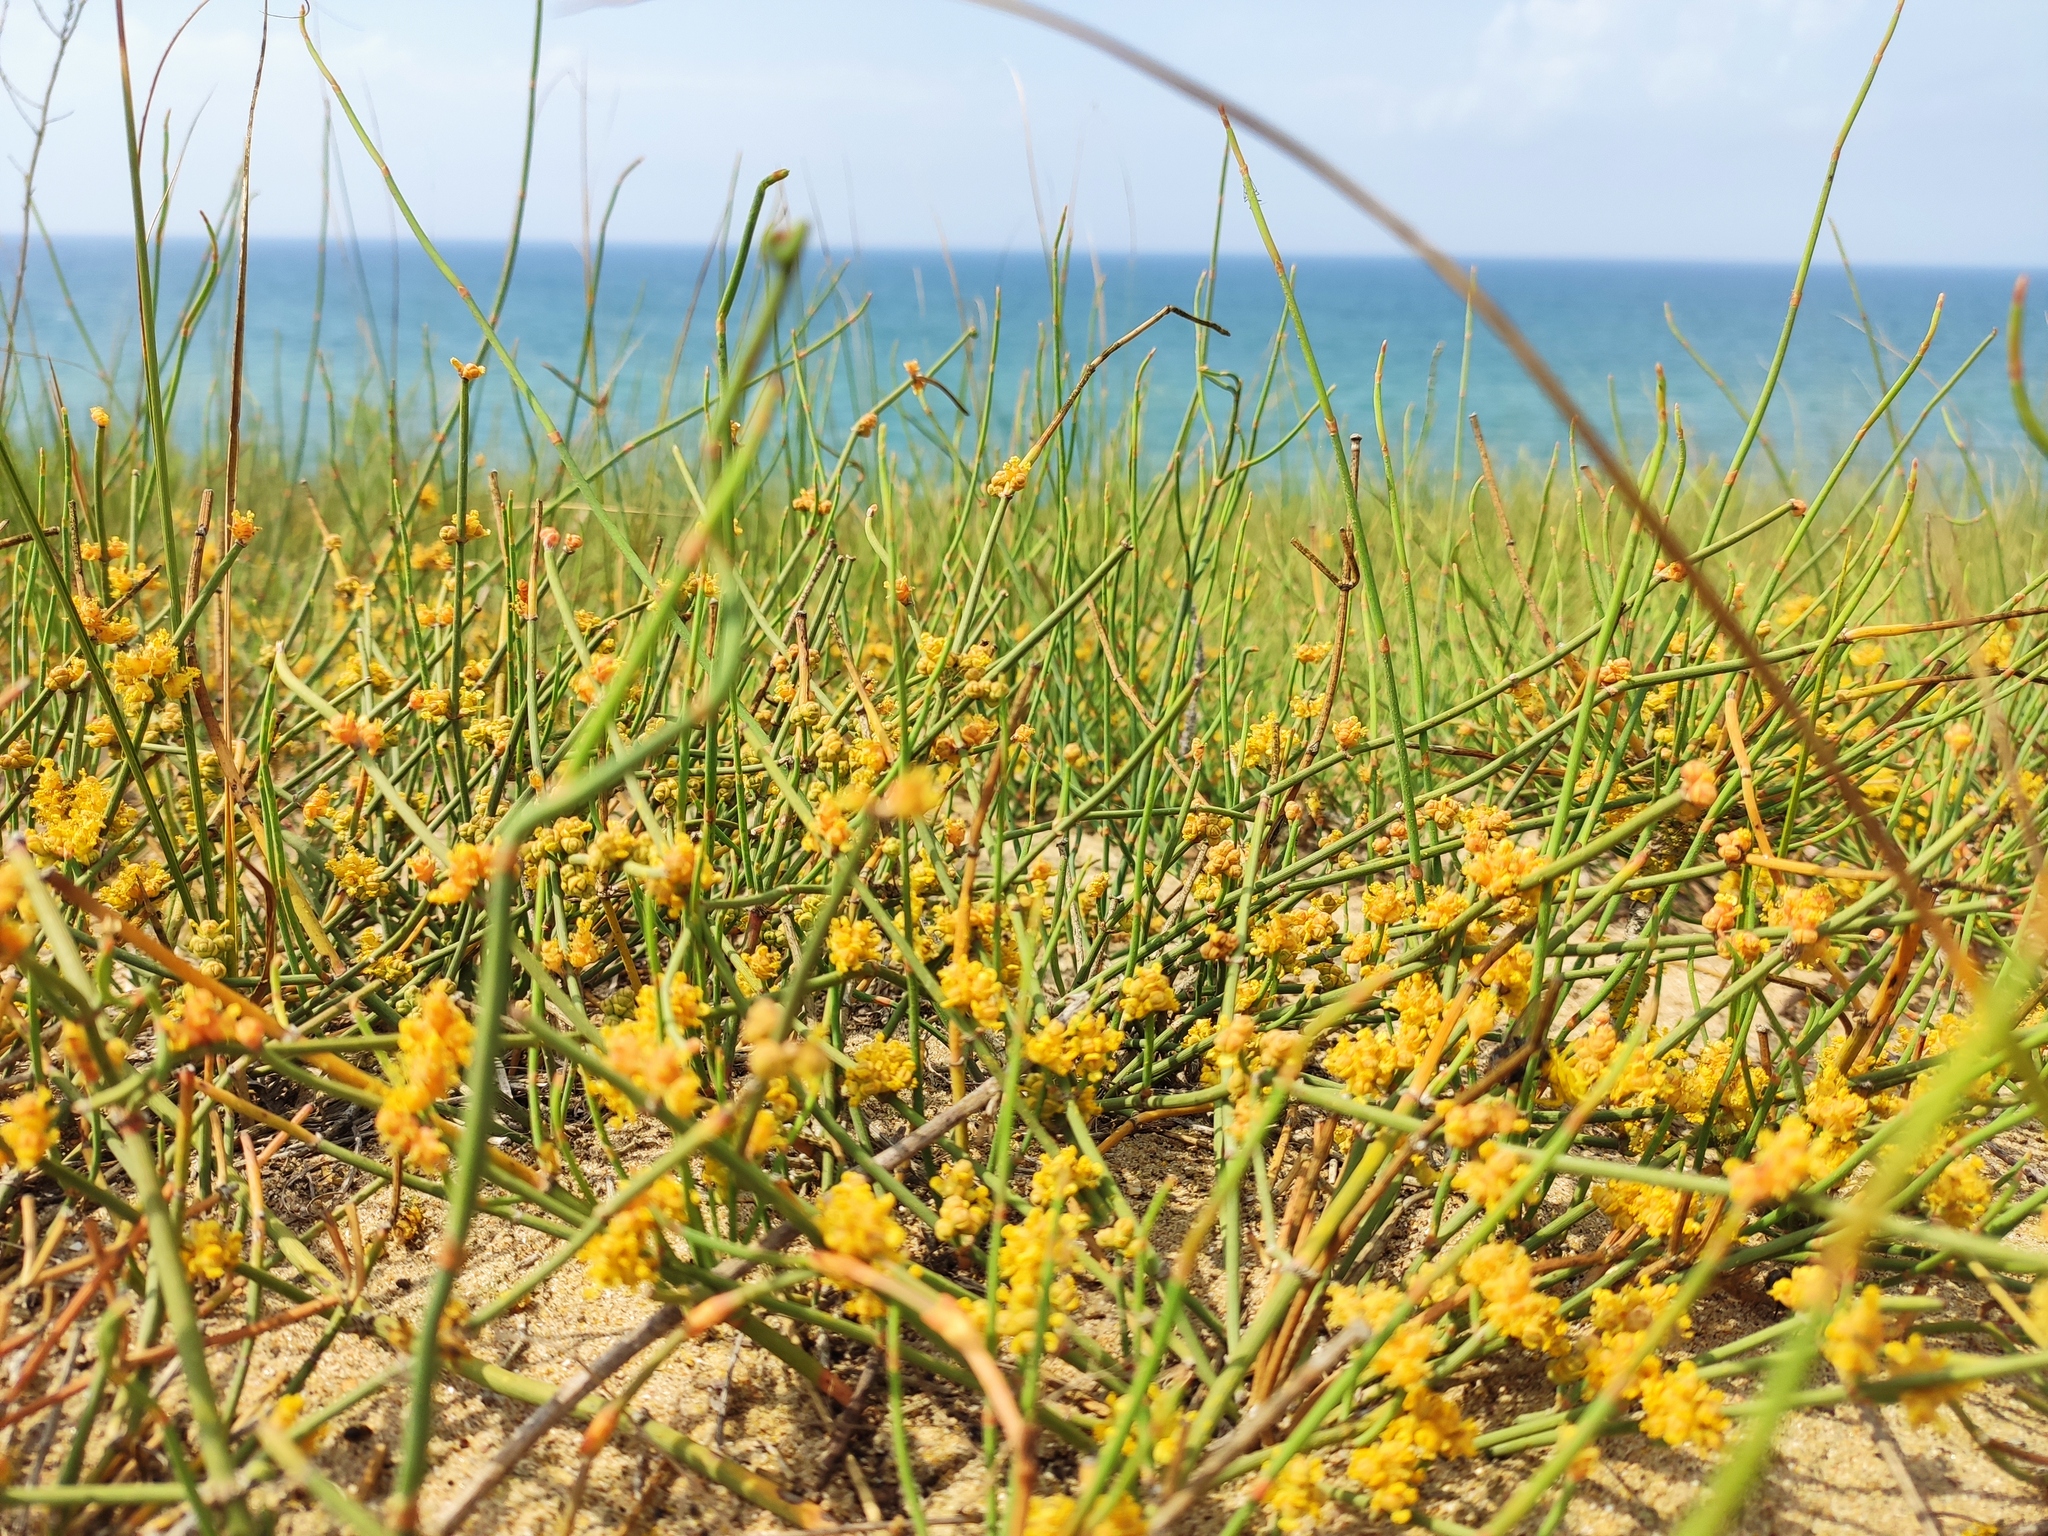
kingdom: Plantae
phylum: Tracheophyta
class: Gnetopsida
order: Ephedrales
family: Ephedraceae
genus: Ephedra
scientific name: Ephedra distachya
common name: Sea grape
